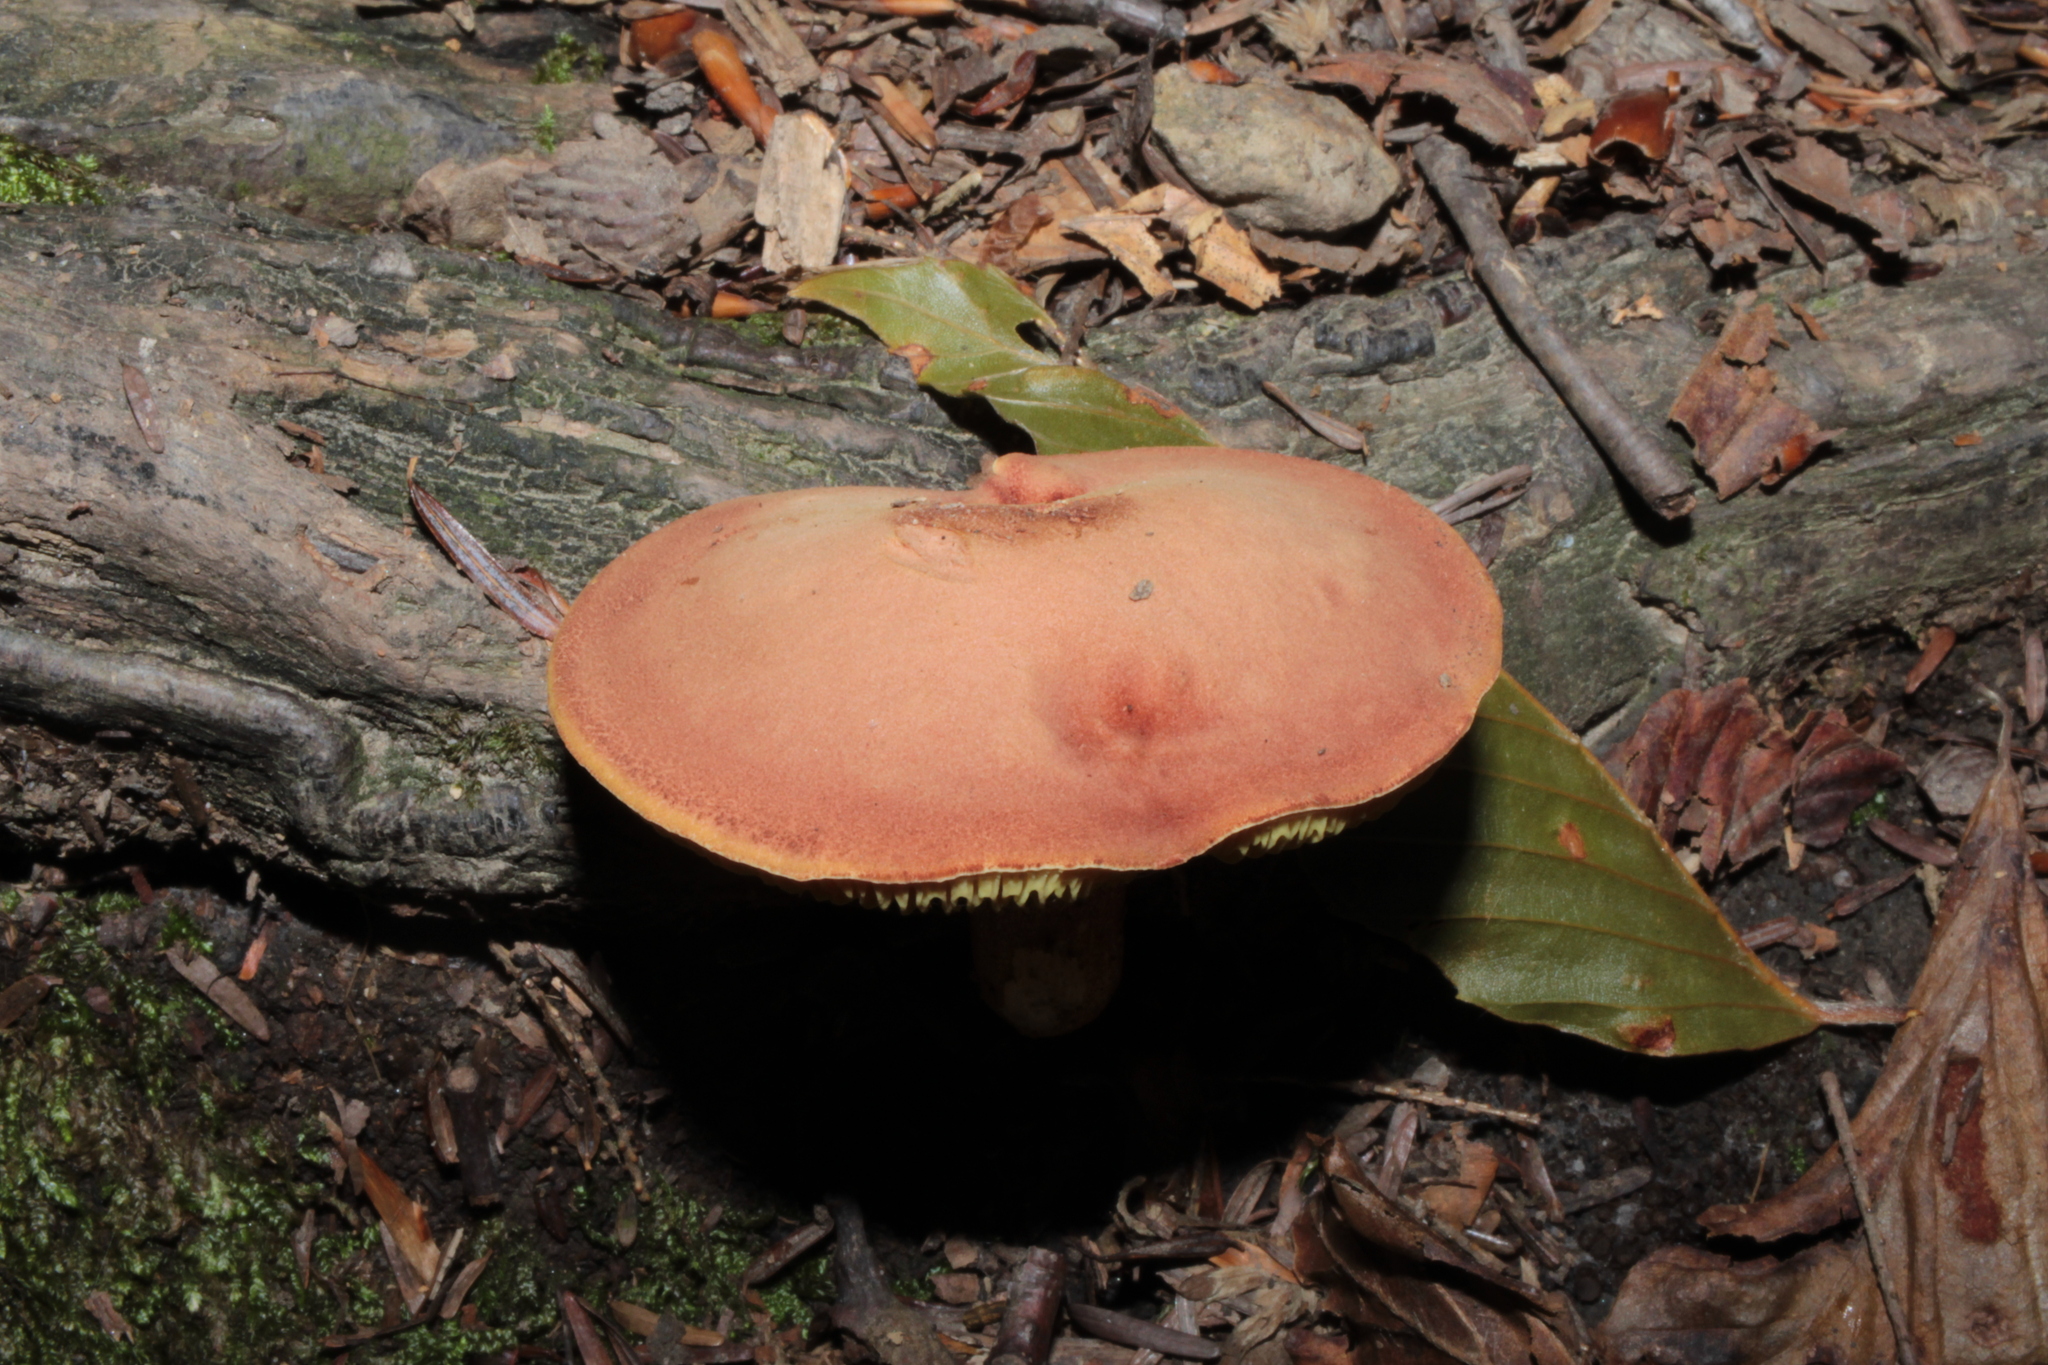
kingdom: Fungi
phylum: Basidiomycota
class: Agaricomycetes
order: Boletales
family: Boletaceae
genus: Phylloporus
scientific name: Phylloporus leucomycelinus
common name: Gilled bolete
